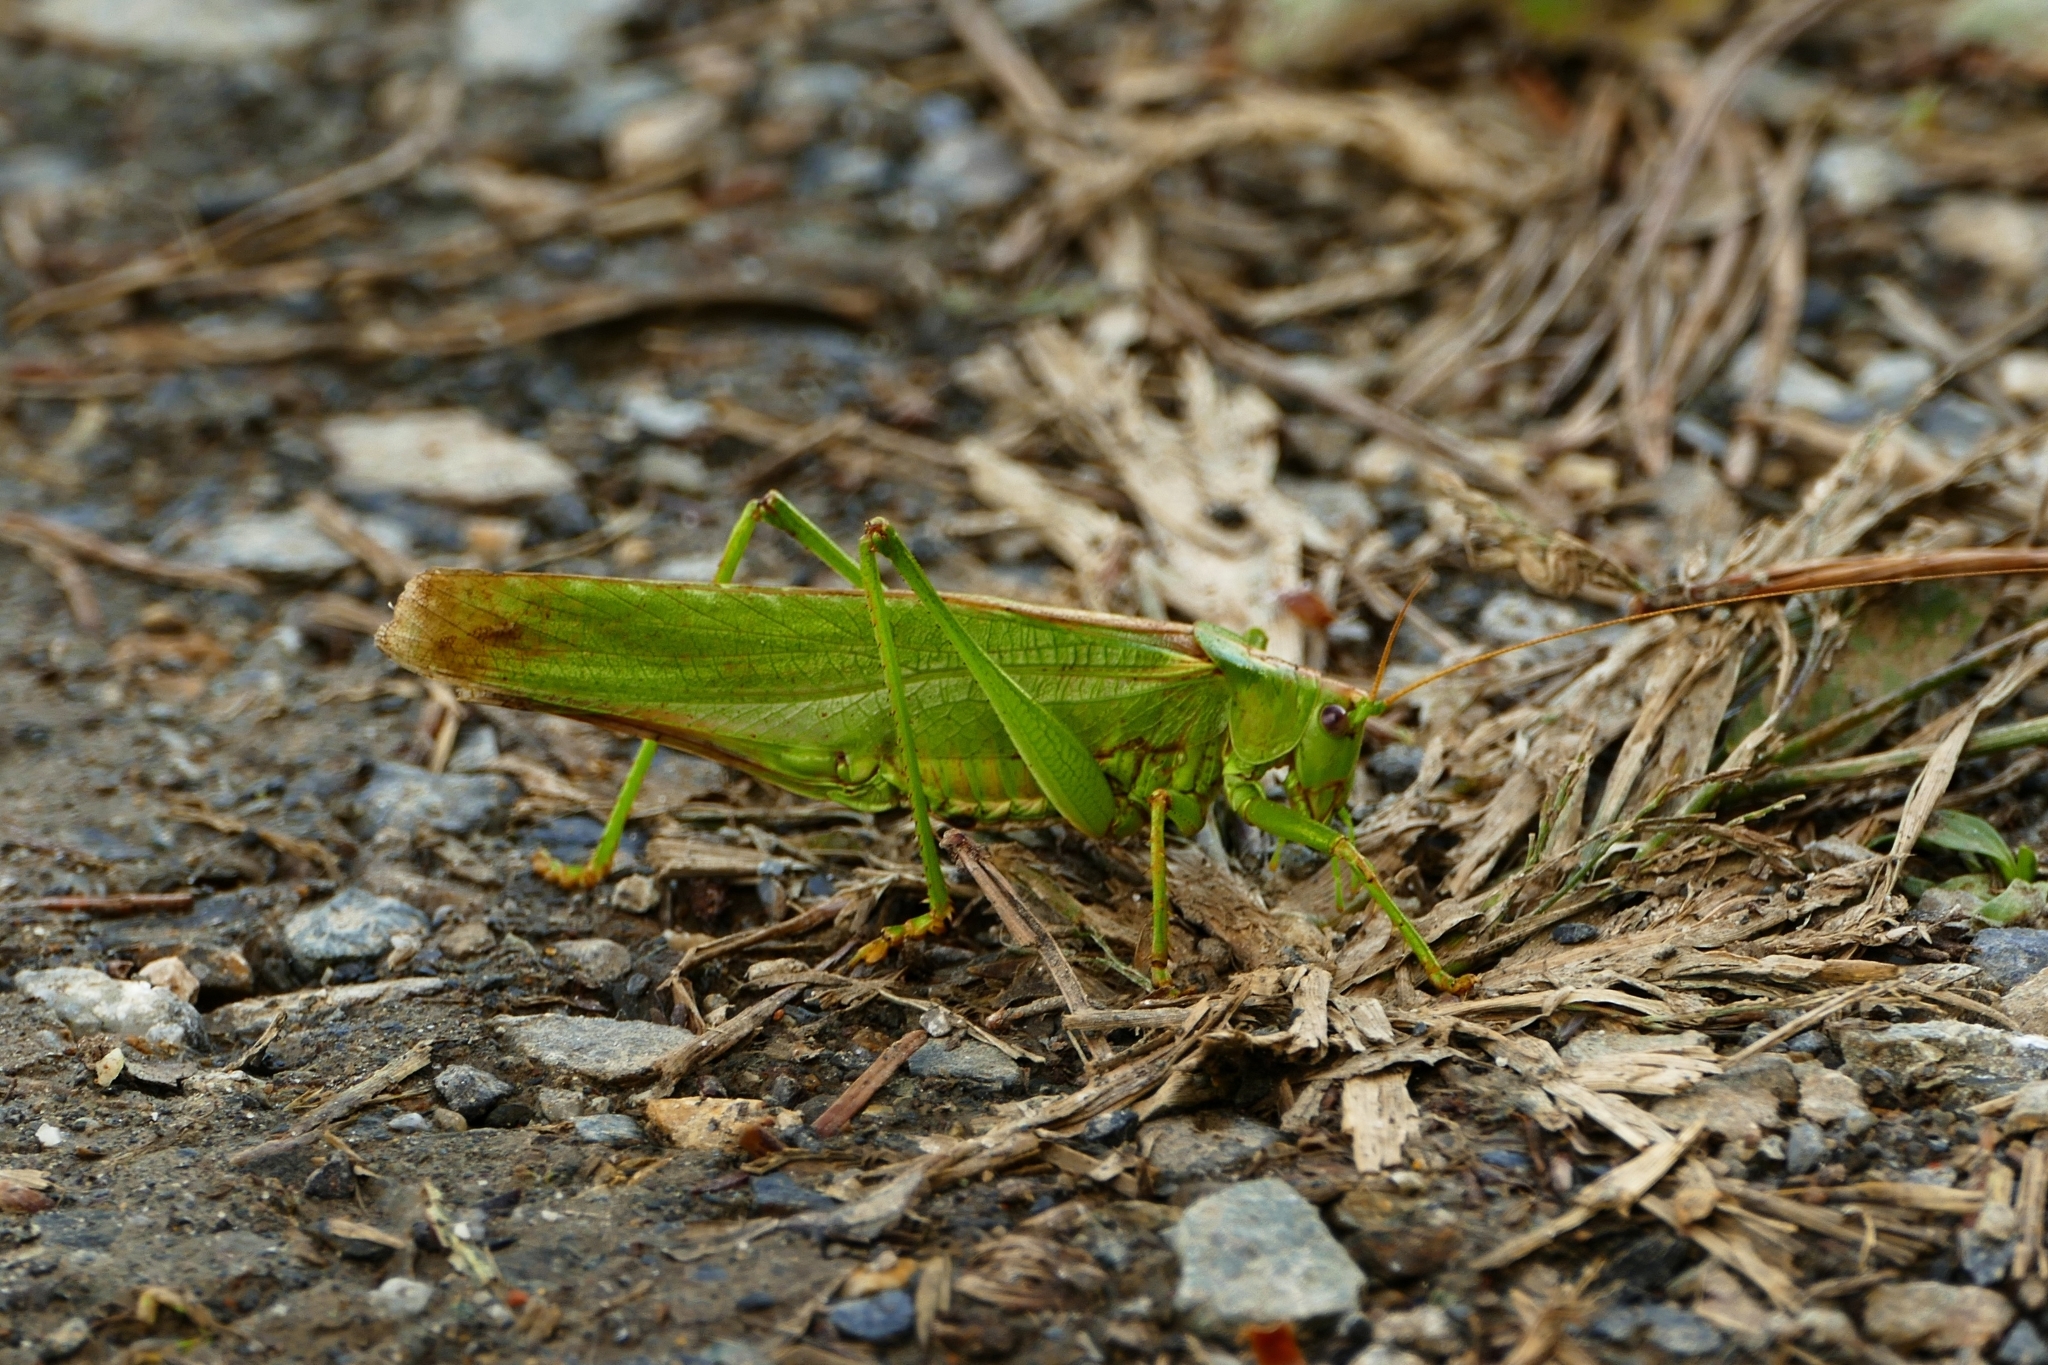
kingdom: Animalia
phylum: Arthropoda
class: Insecta
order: Orthoptera
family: Tettigoniidae
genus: Tettigonia
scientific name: Tettigonia viridissima
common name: Great green bush-cricket
